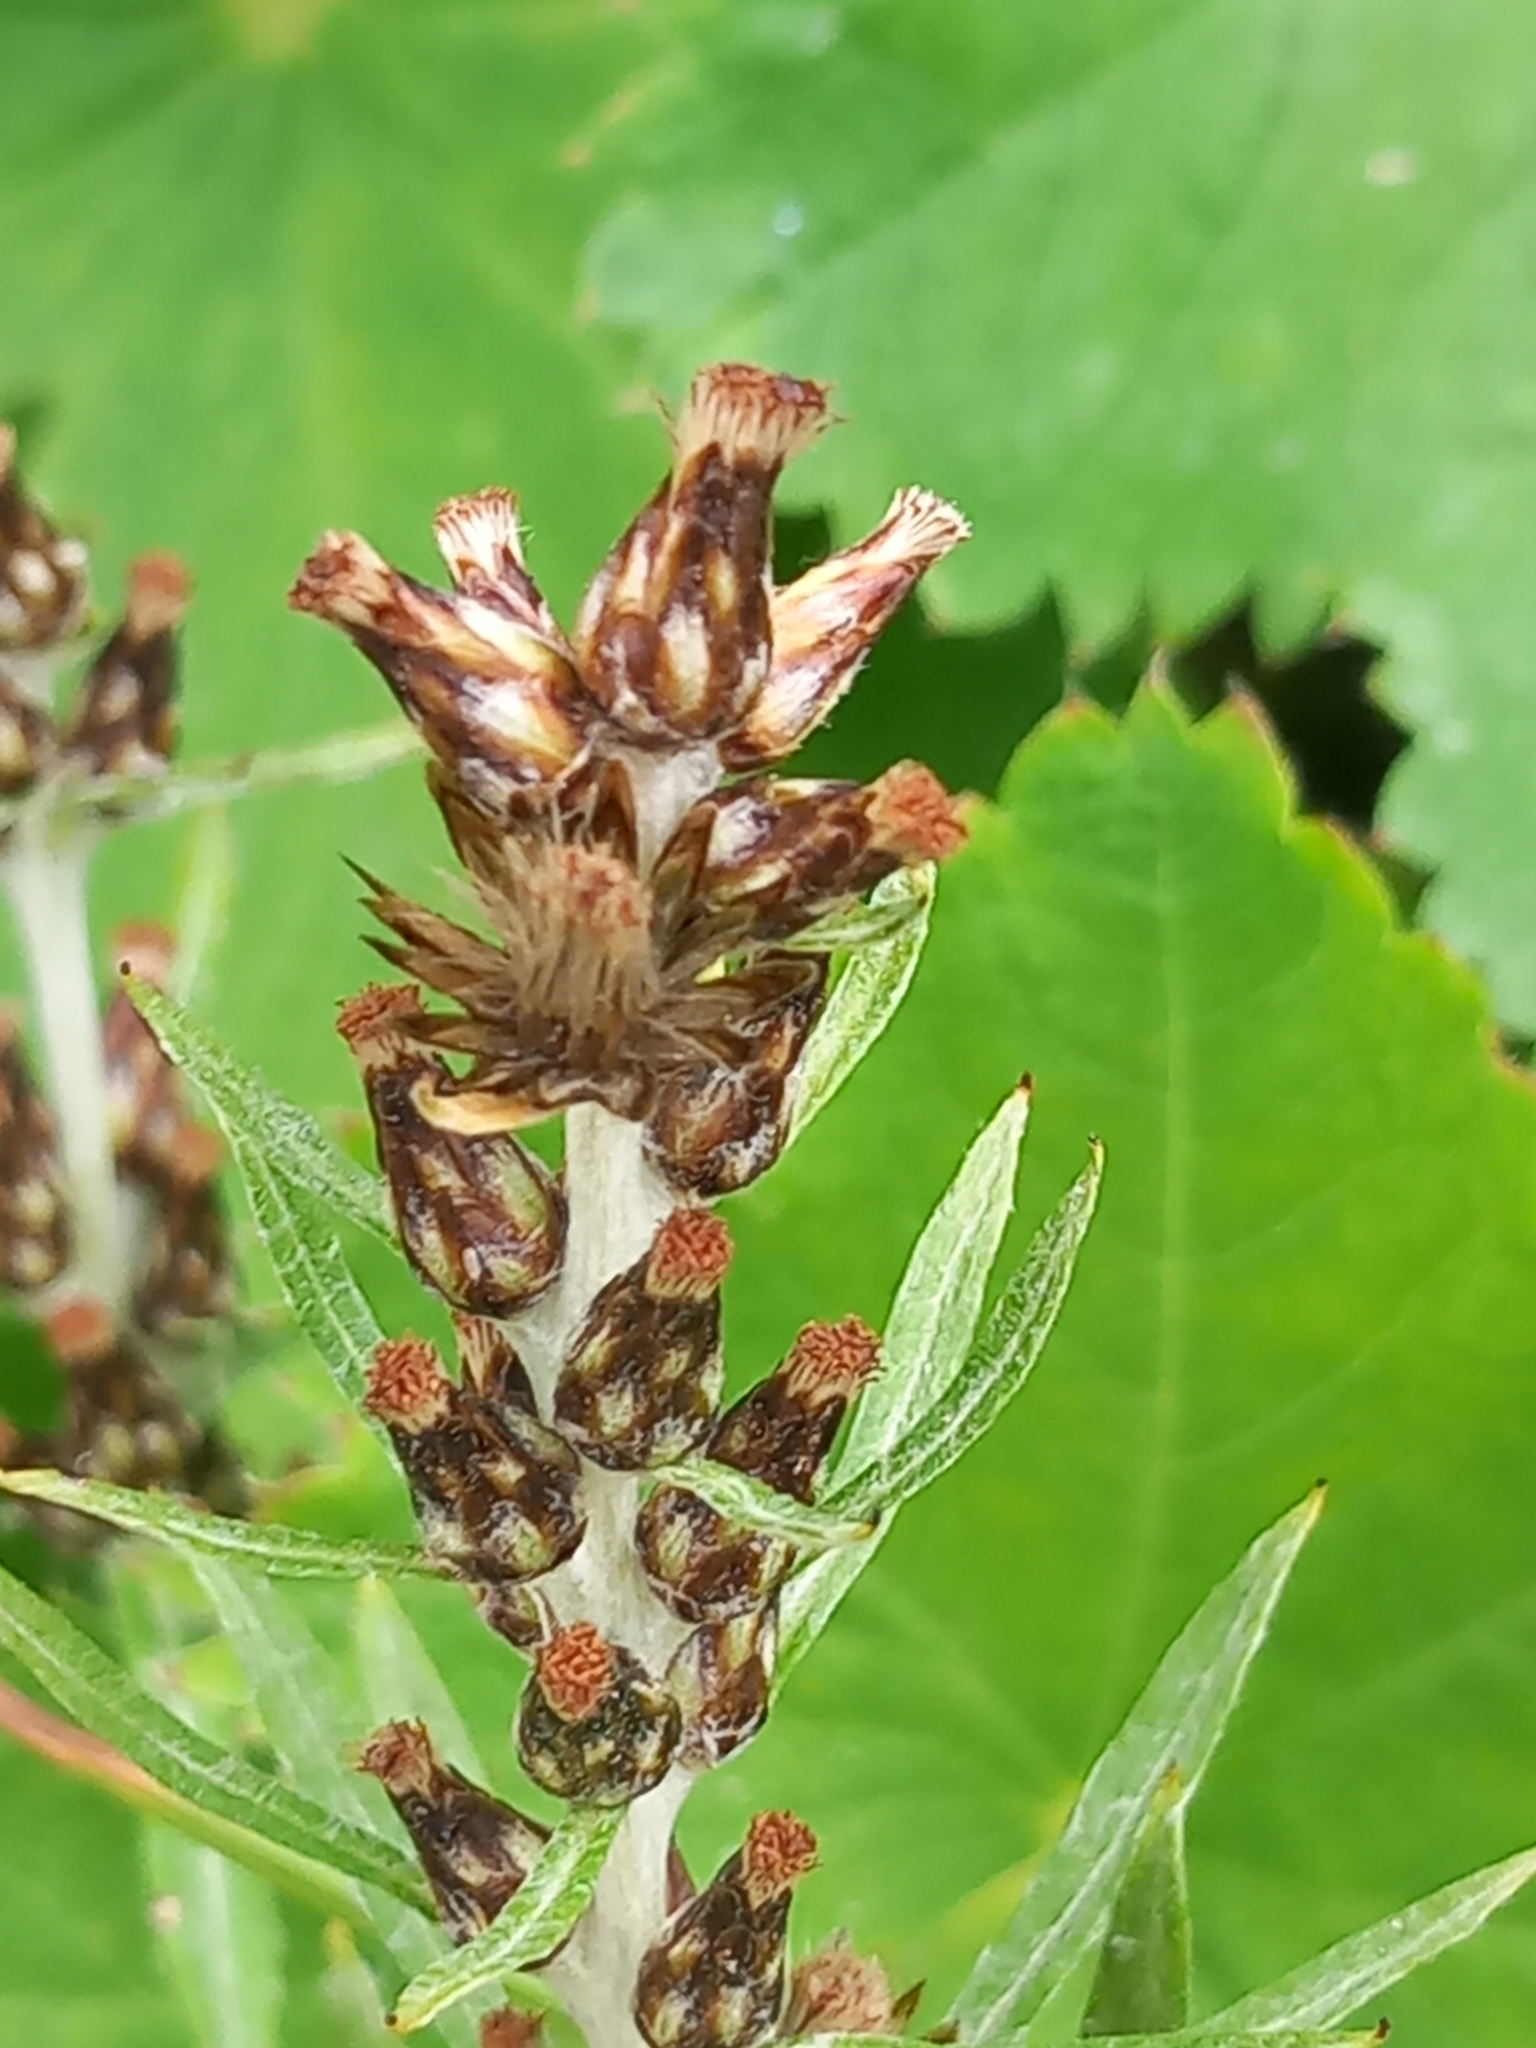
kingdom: Plantae
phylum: Tracheophyta
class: Magnoliopsida
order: Asterales
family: Asteraceae
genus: Omalotheca
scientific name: Omalotheca sylvatica
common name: Heath cudweed
